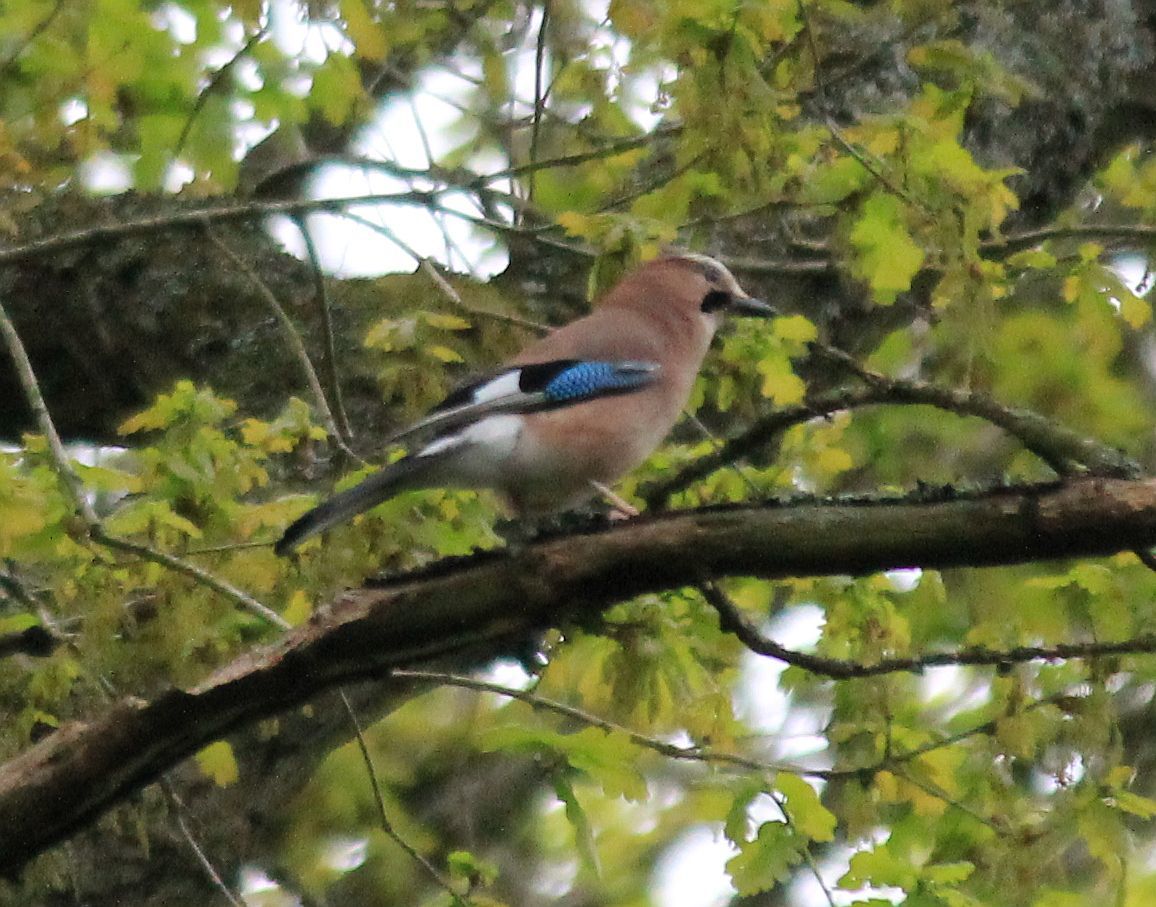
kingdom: Animalia
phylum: Chordata
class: Aves
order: Passeriformes
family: Corvidae
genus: Garrulus
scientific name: Garrulus glandarius
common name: Eurasian jay
